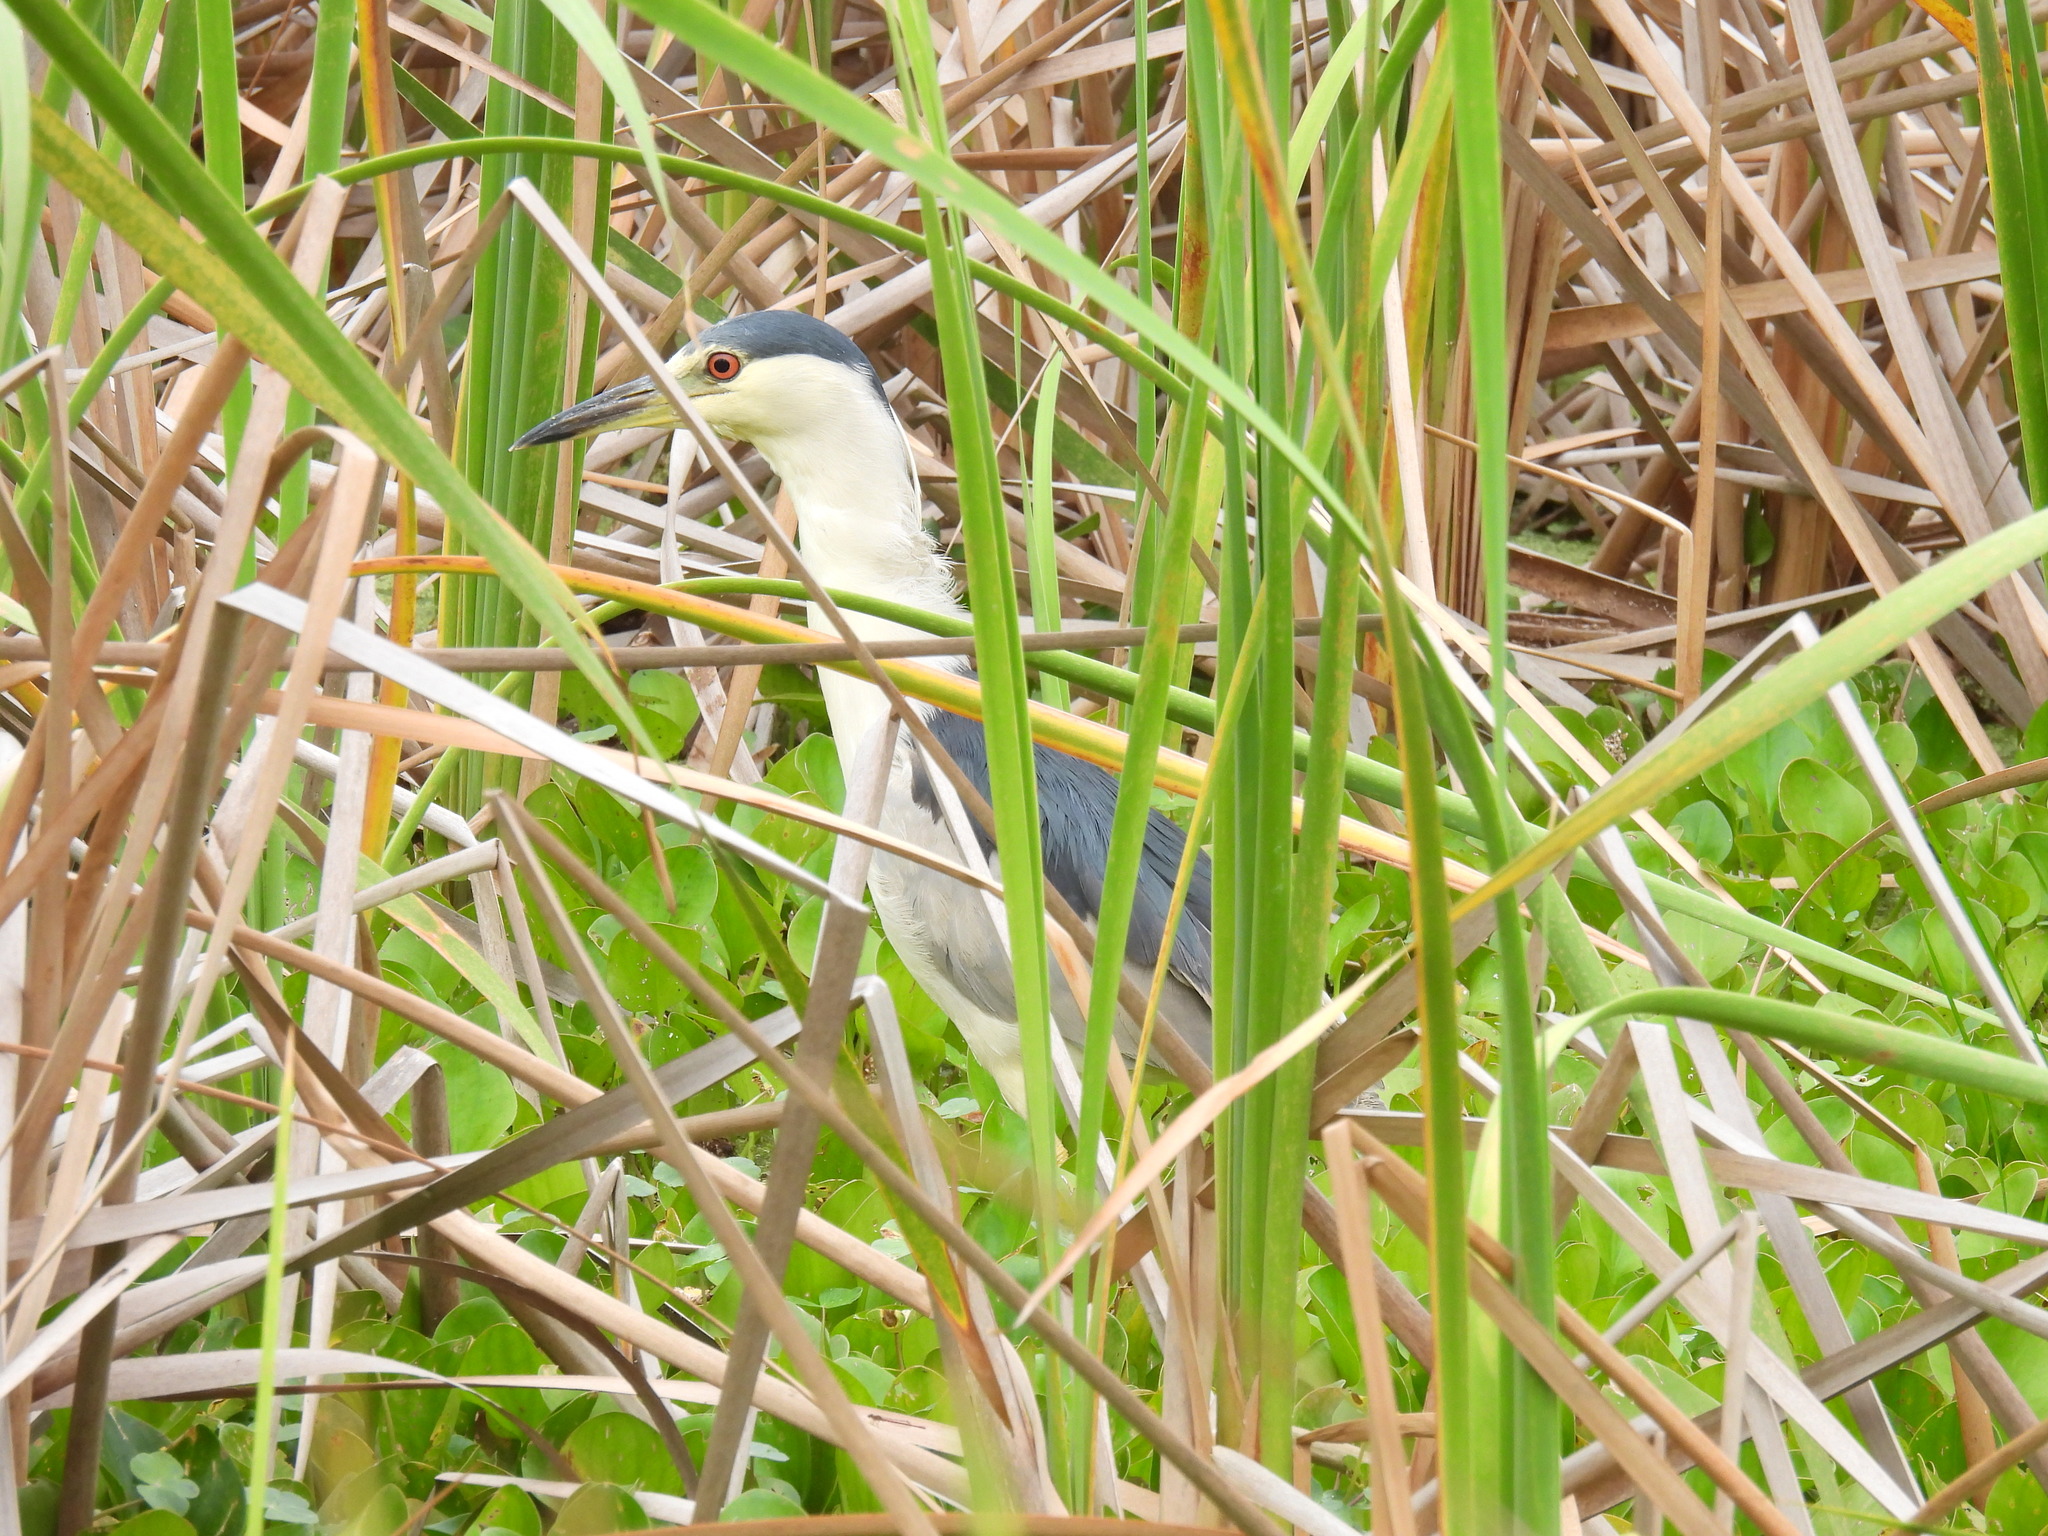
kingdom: Animalia
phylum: Chordata
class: Aves
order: Pelecaniformes
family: Ardeidae
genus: Nycticorax
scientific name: Nycticorax nycticorax
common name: Black-crowned night heron
